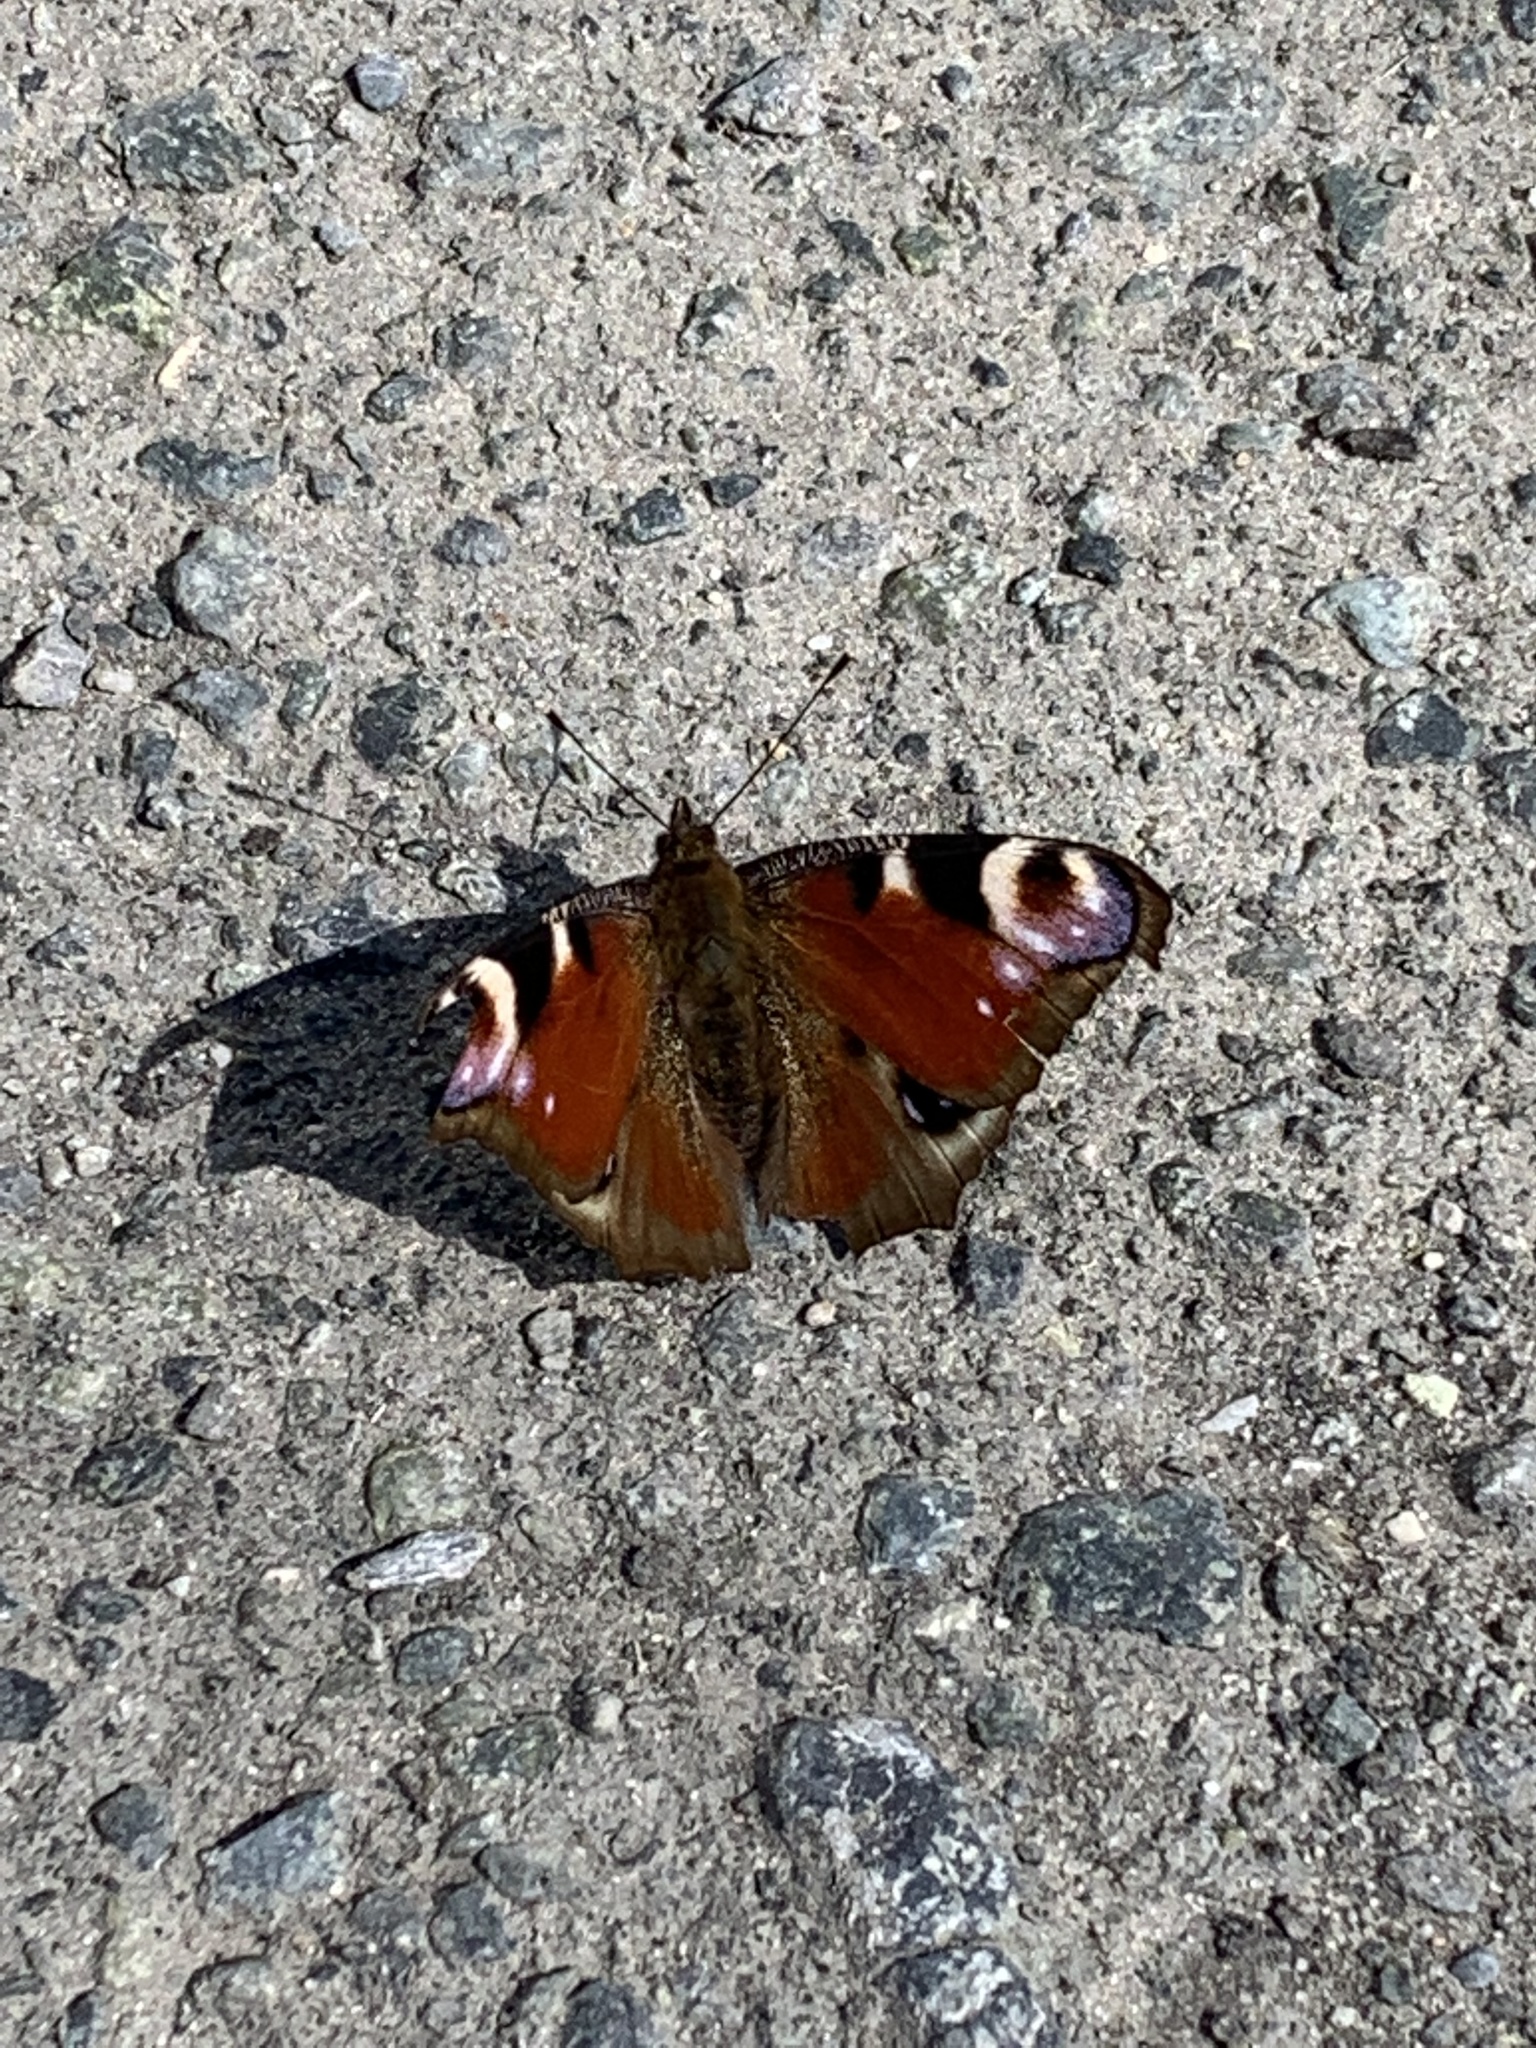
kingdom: Animalia
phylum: Arthropoda
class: Insecta
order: Lepidoptera
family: Nymphalidae
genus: Aglais
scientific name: Aglais io
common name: Peacock
